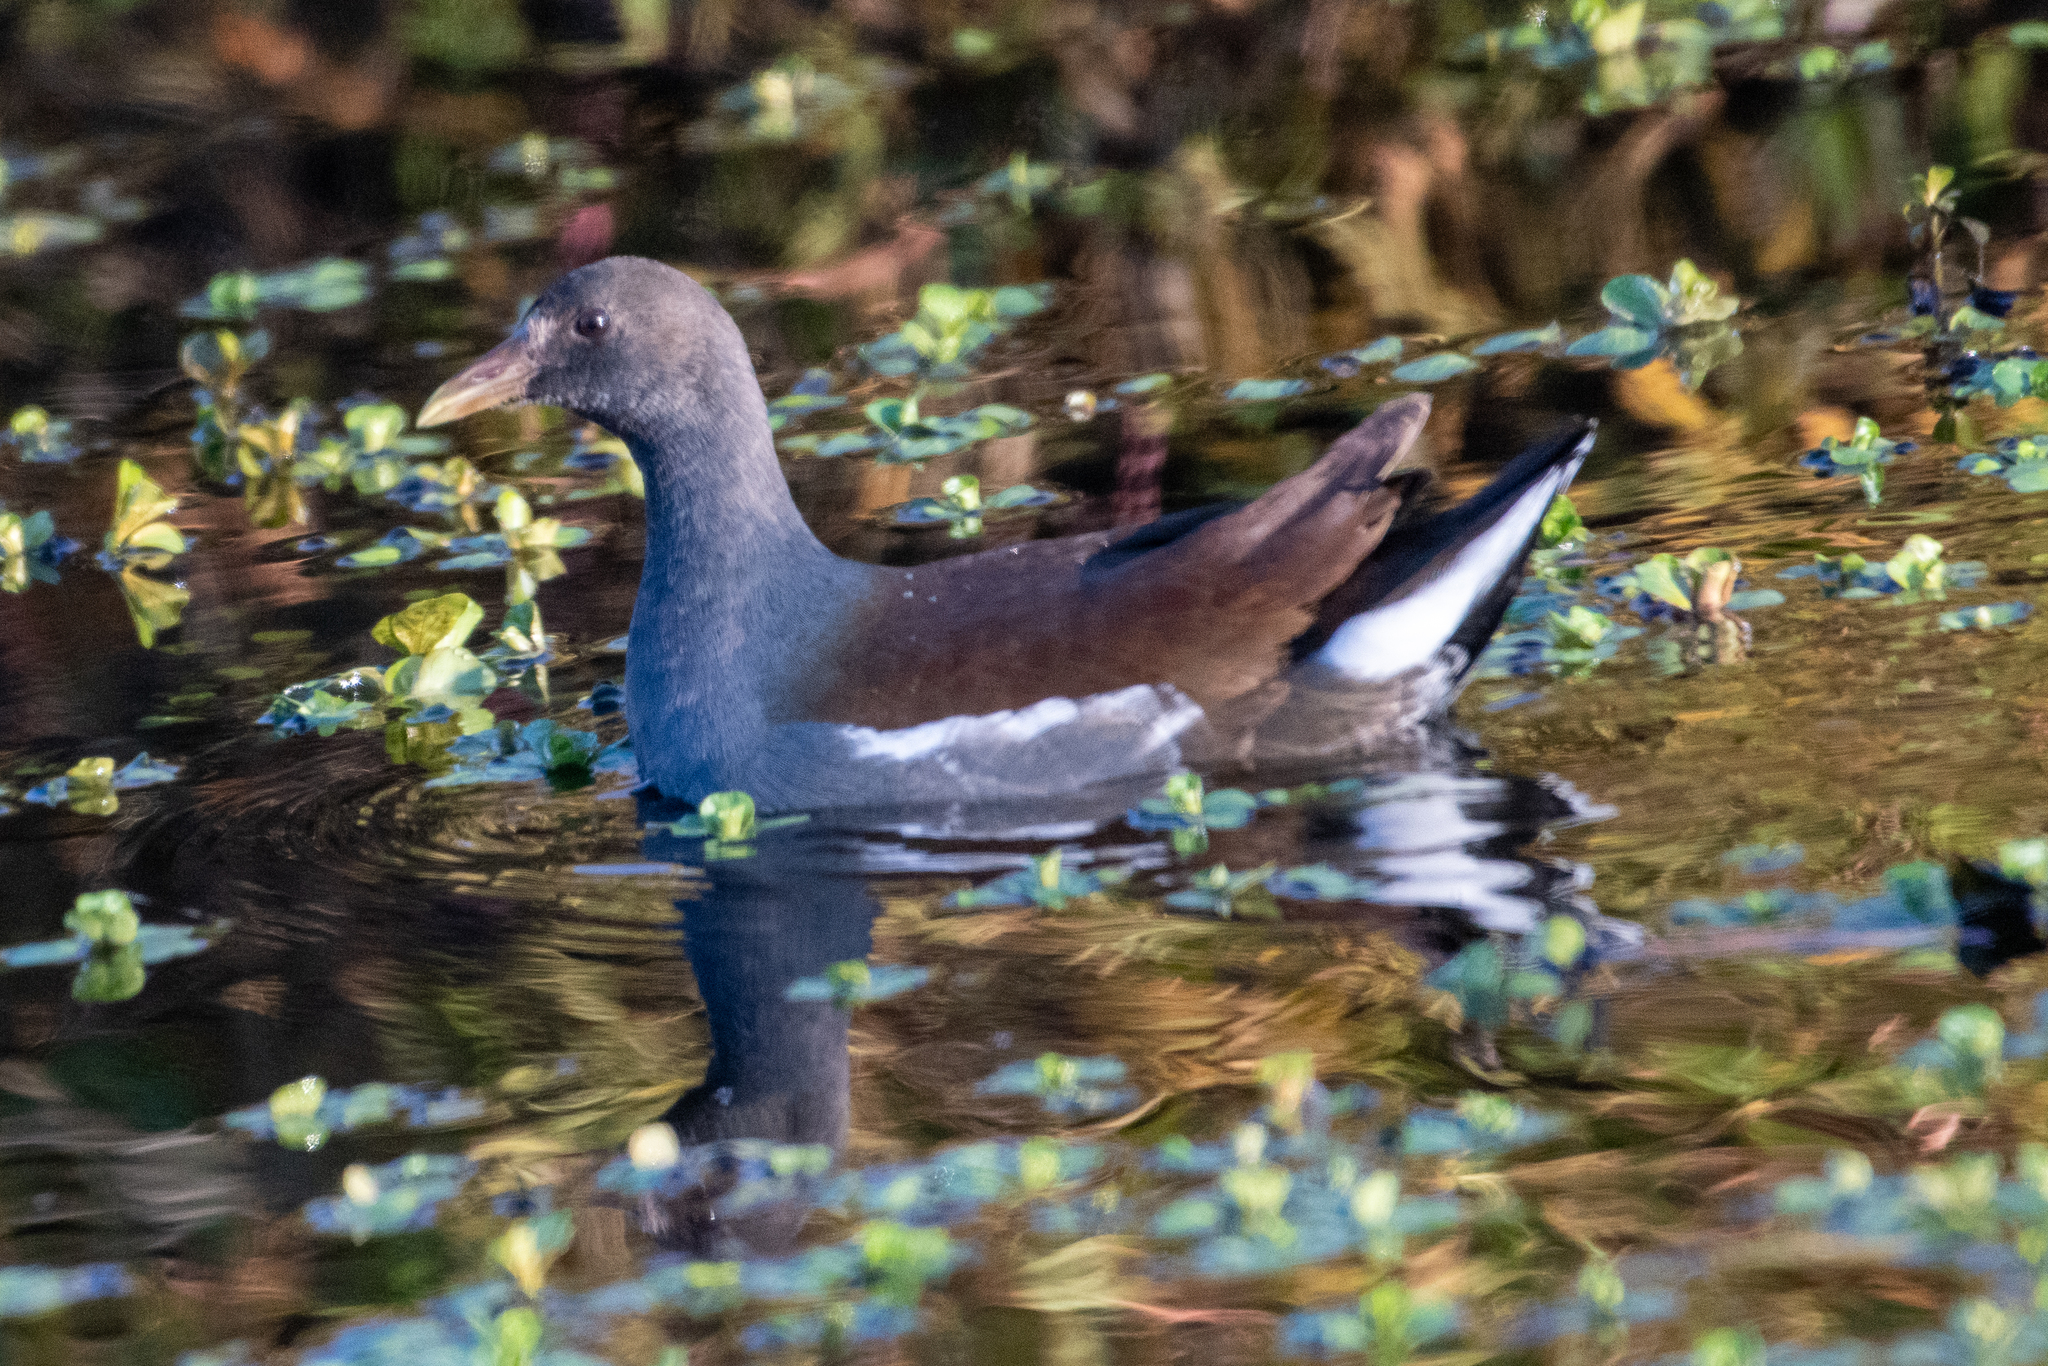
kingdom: Animalia
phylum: Chordata
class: Aves
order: Gruiformes
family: Rallidae
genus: Gallinula
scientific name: Gallinula chloropus
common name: Common moorhen
